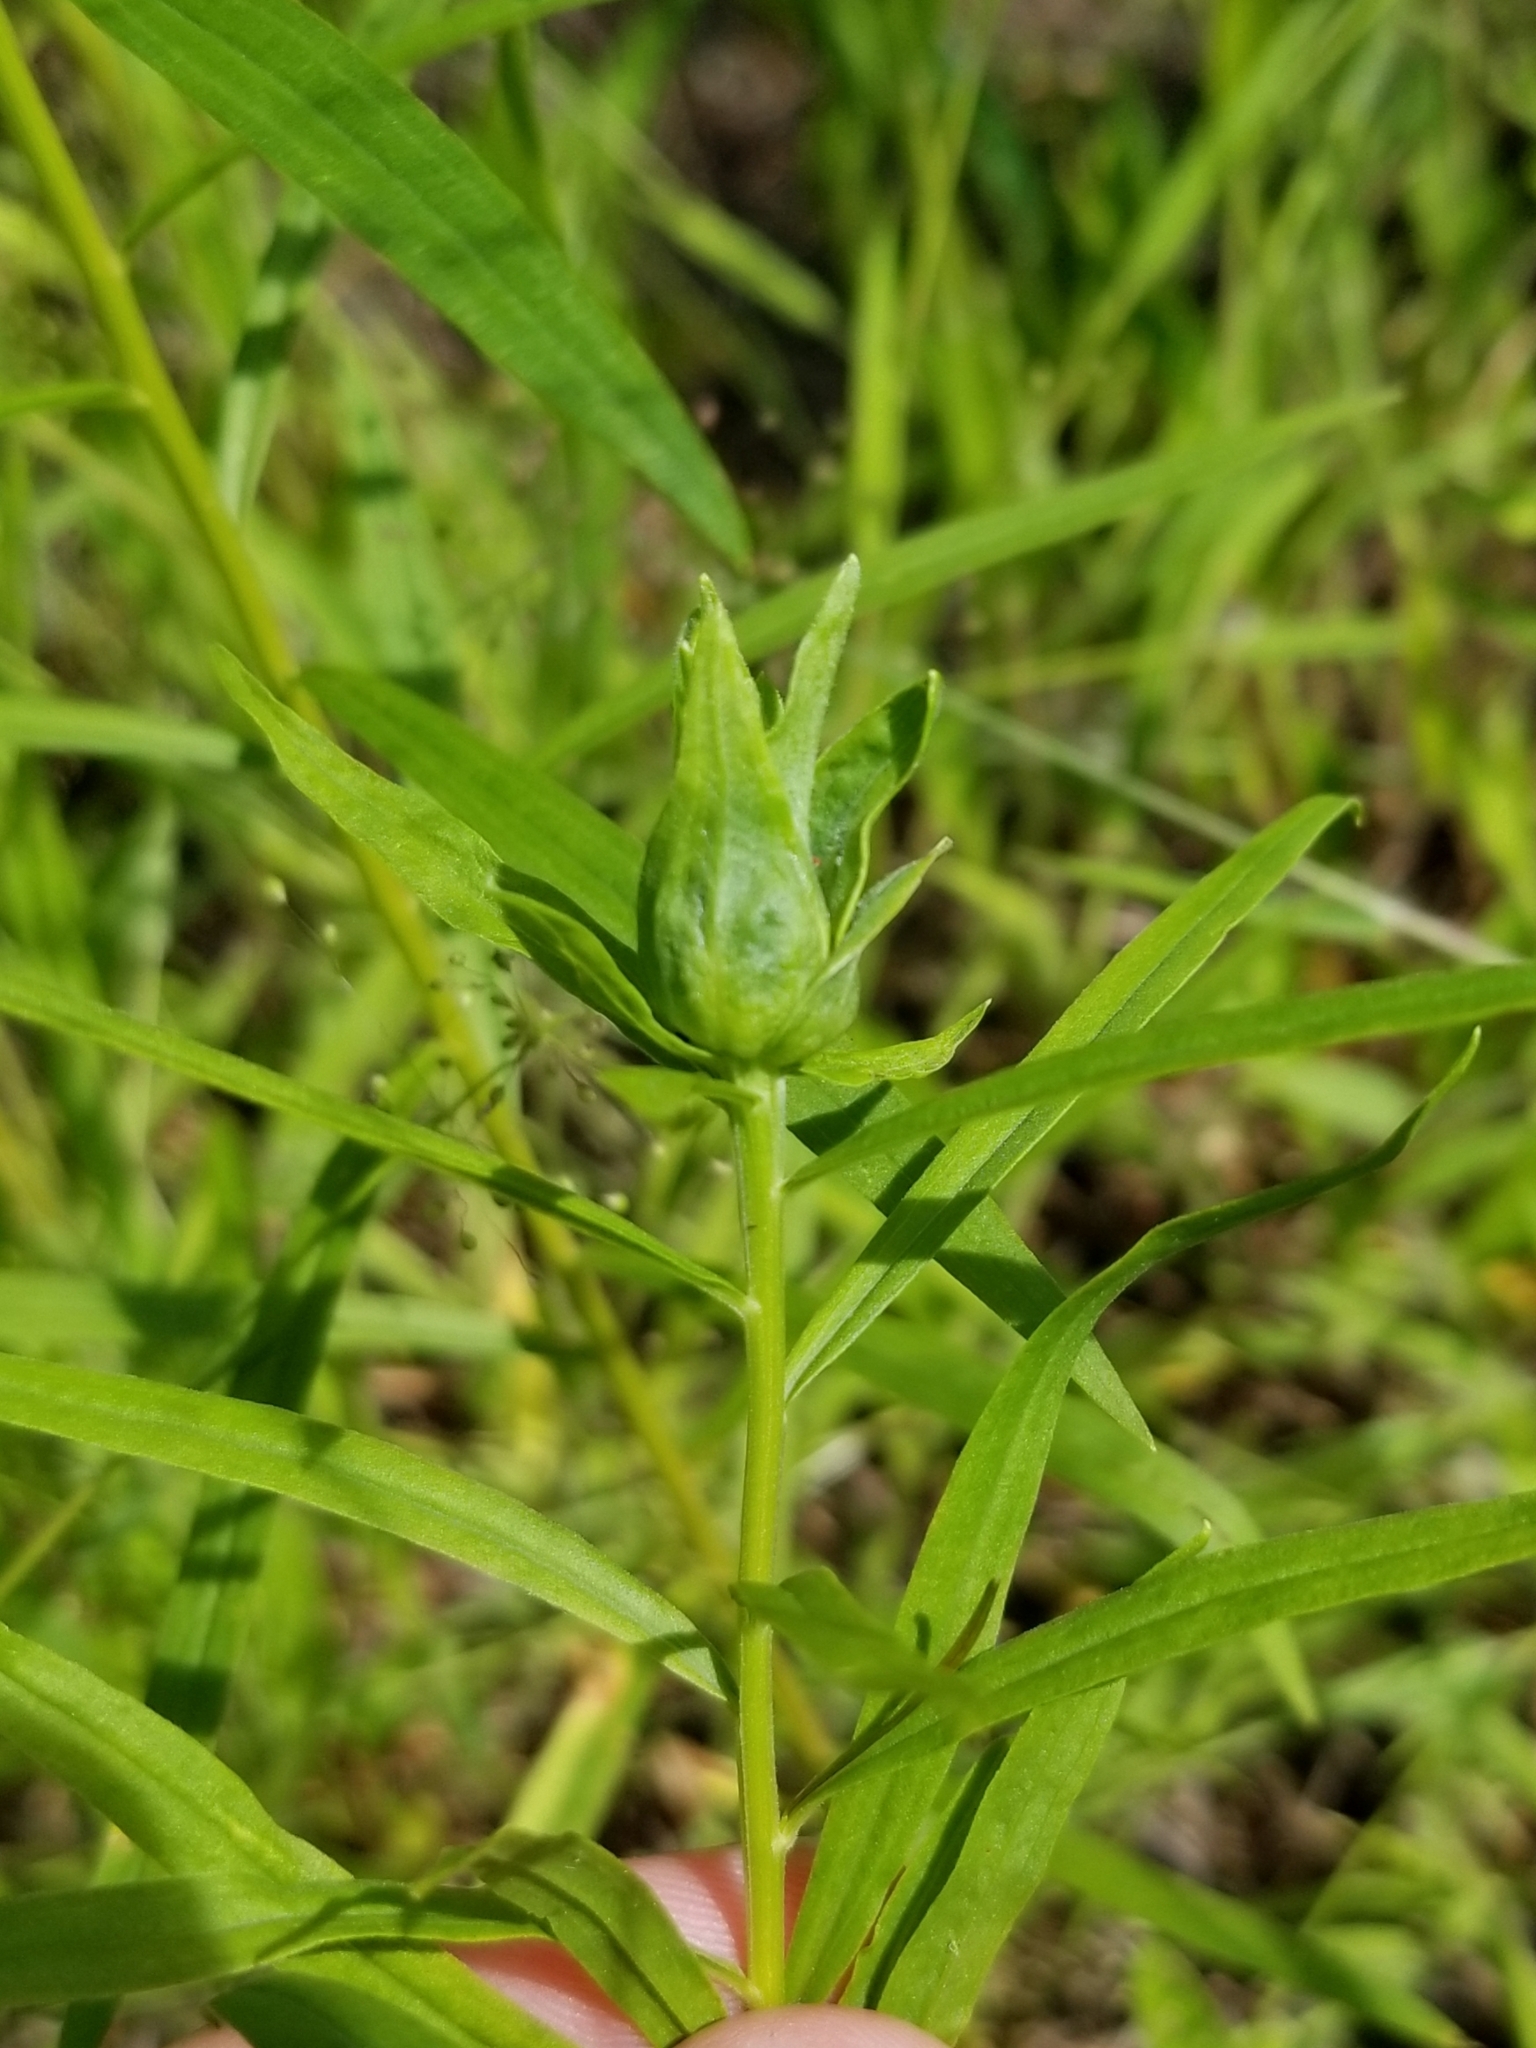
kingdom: Animalia
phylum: Arthropoda
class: Insecta
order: Diptera
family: Cecidomyiidae
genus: Asphondylia
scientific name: Asphondylia pseudorosa
